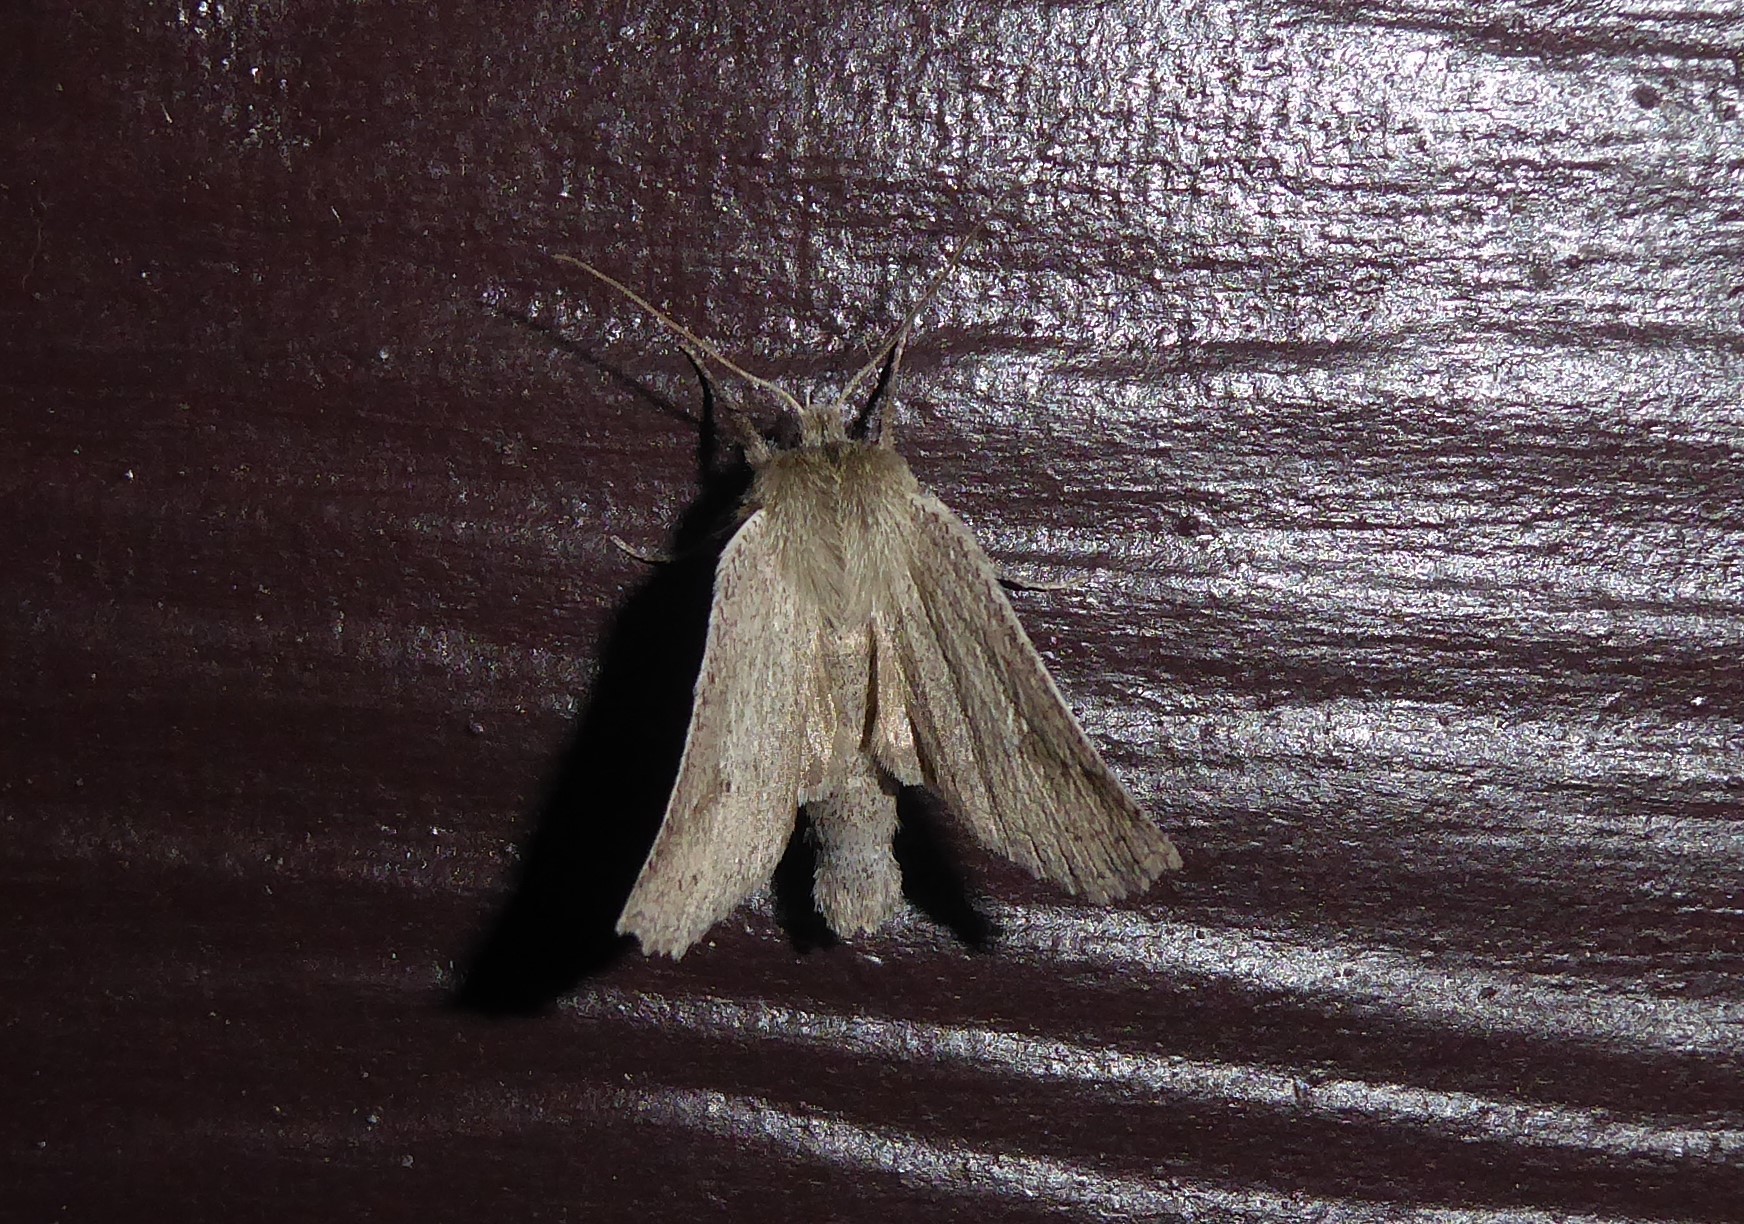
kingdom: Animalia
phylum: Arthropoda
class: Insecta
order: Lepidoptera
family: Geometridae
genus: Declana
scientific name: Declana leptomera
